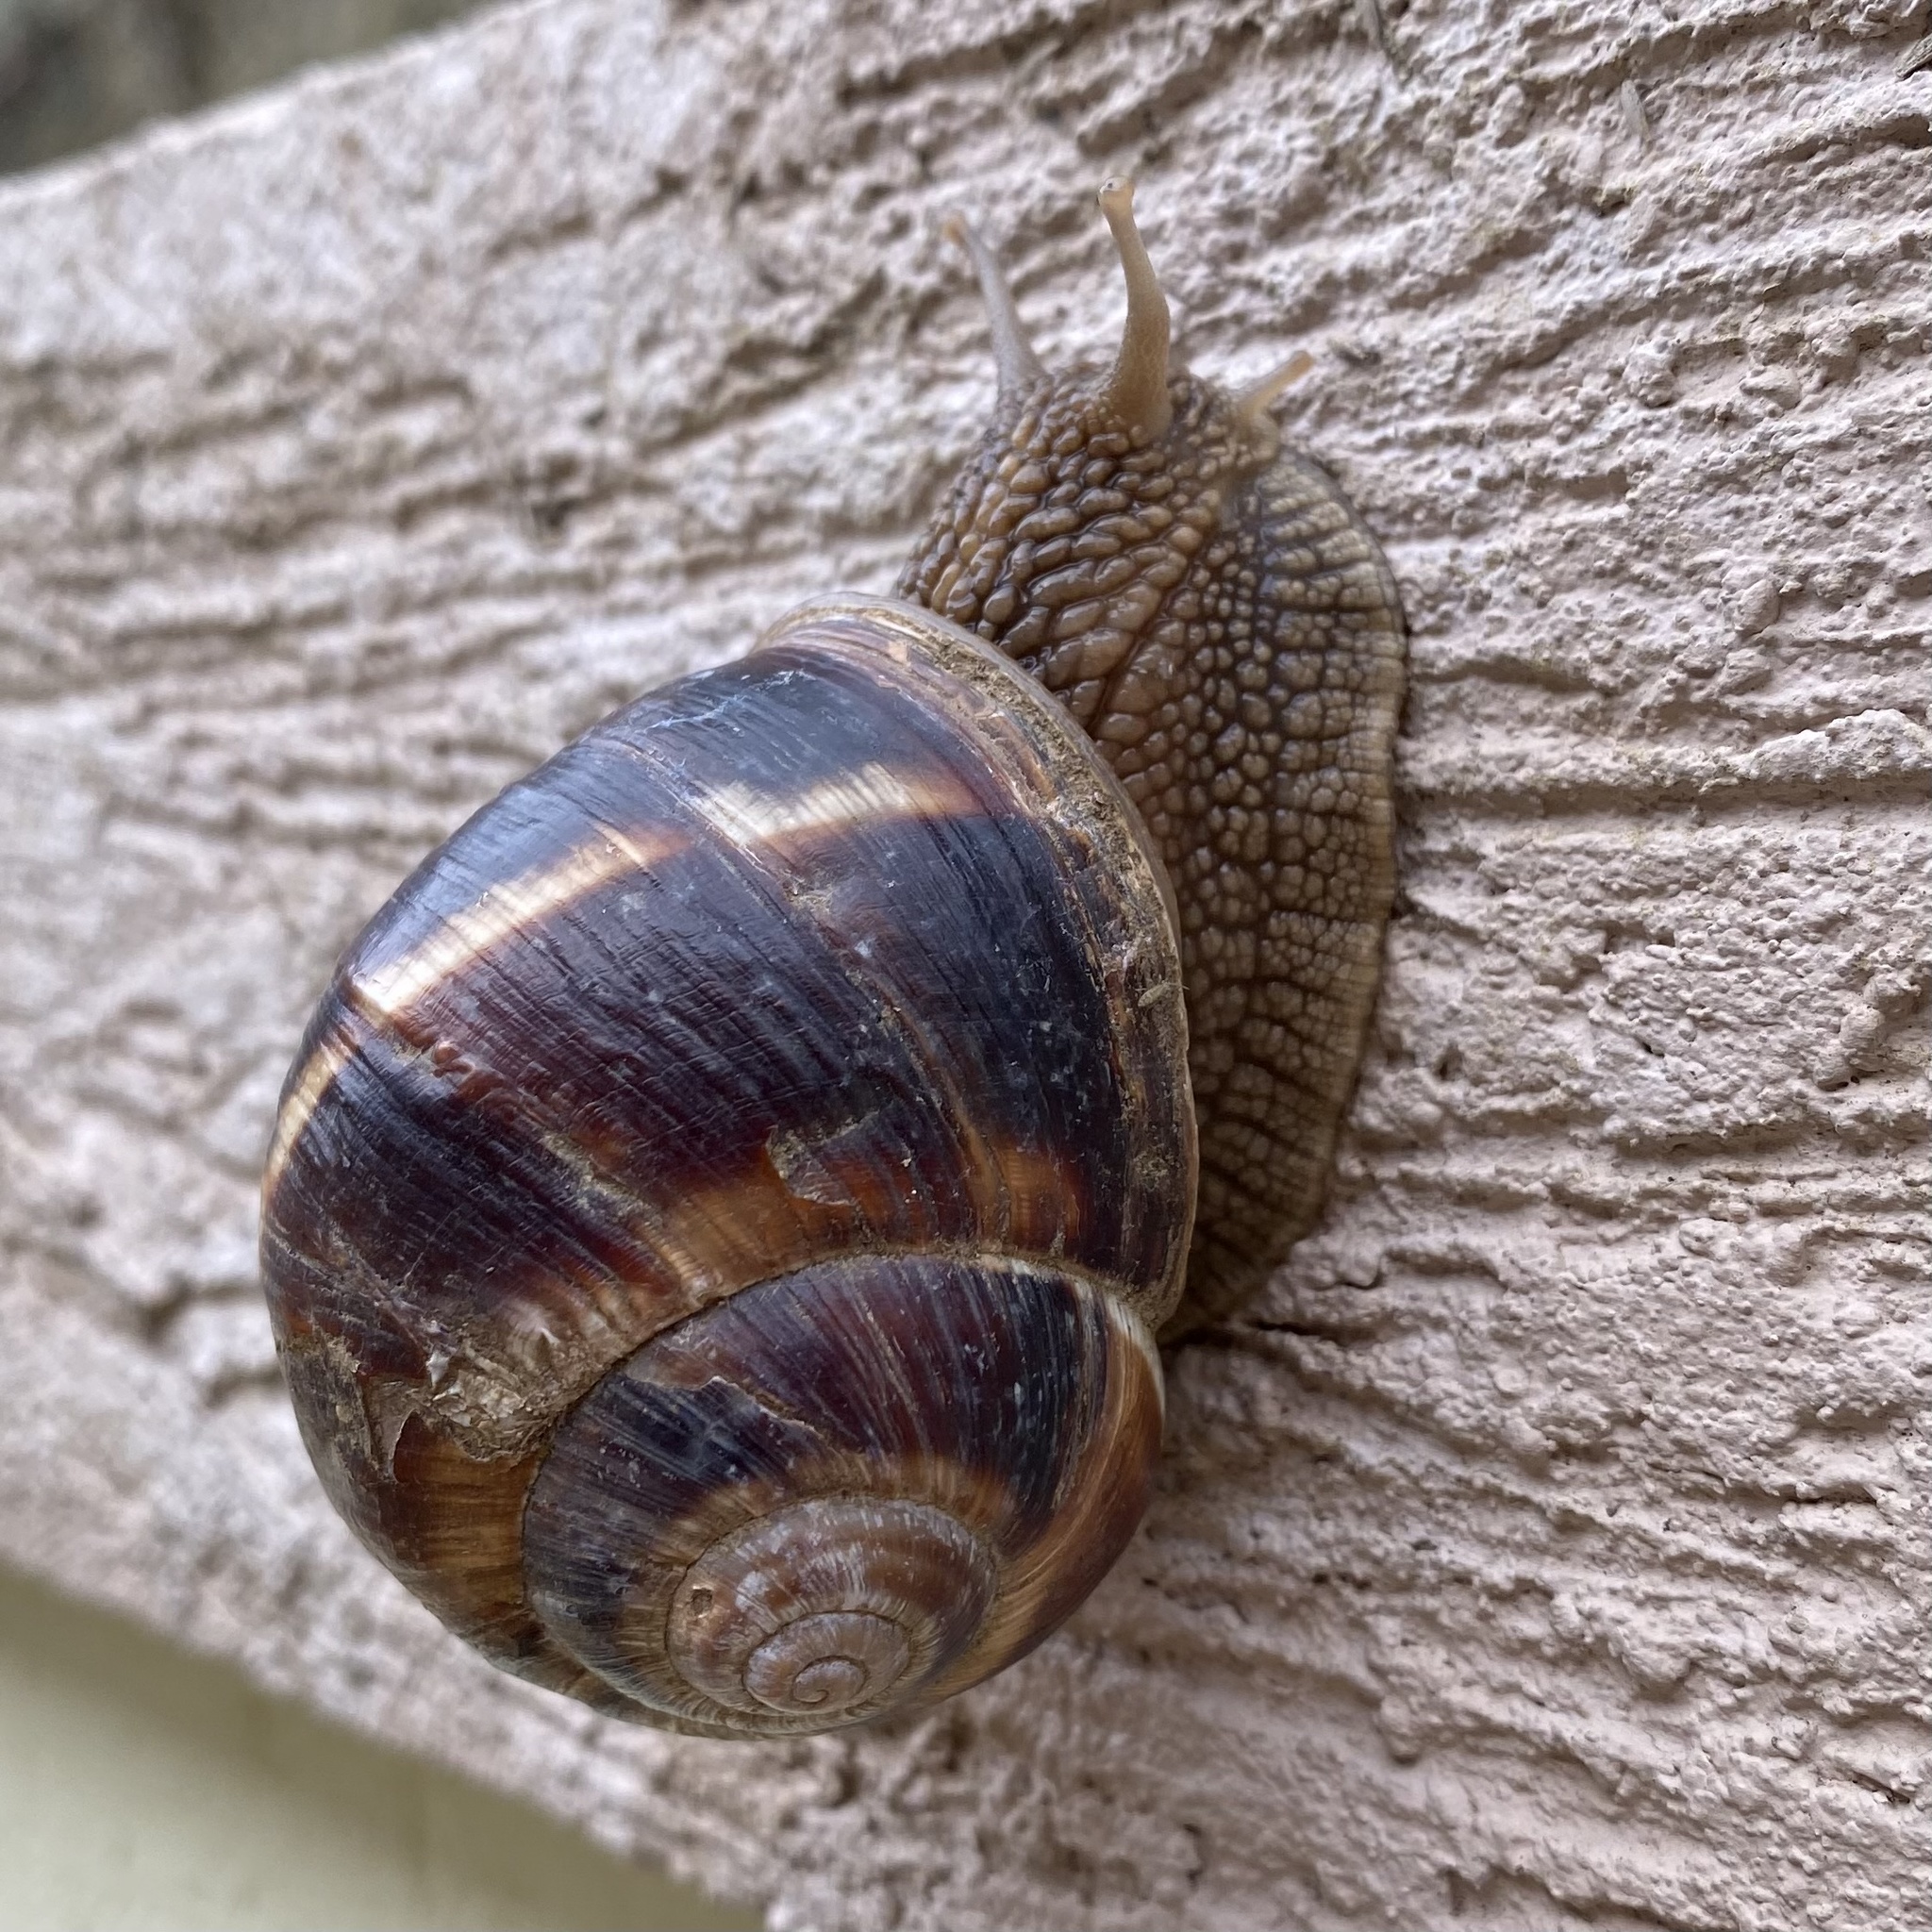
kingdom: Animalia
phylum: Mollusca
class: Gastropoda
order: Stylommatophora
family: Helicidae
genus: Helix
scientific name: Helix lucorum
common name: Turkish snail
